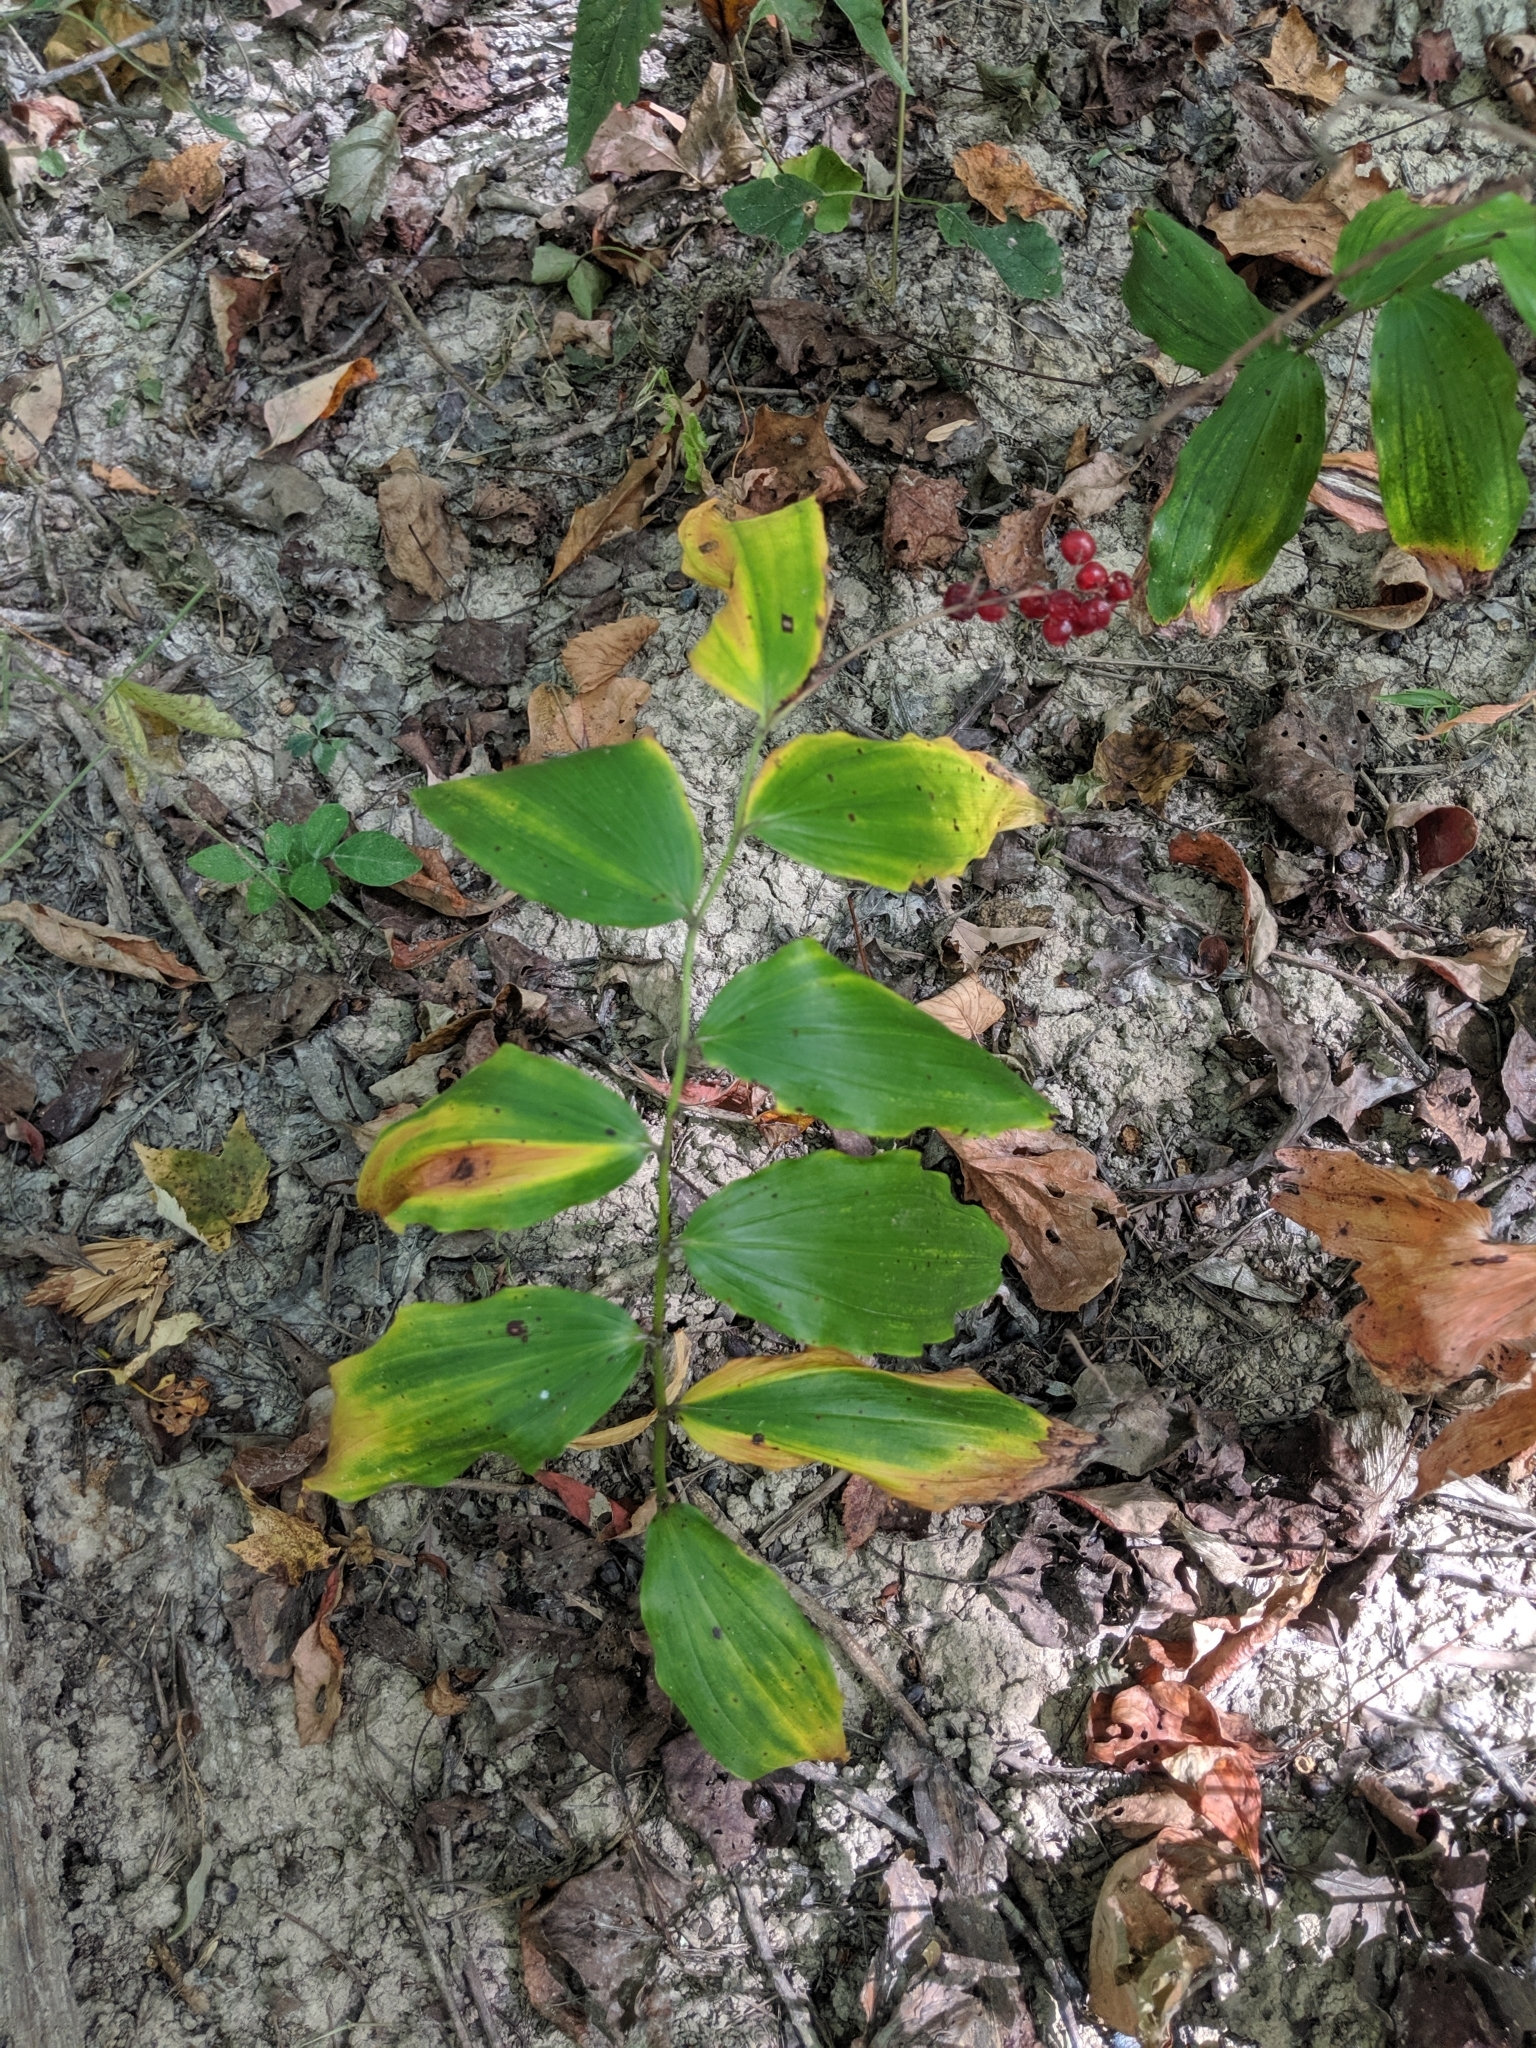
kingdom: Plantae
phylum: Tracheophyta
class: Liliopsida
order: Asparagales
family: Asparagaceae
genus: Maianthemum
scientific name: Maianthemum racemosum
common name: False spikenard
